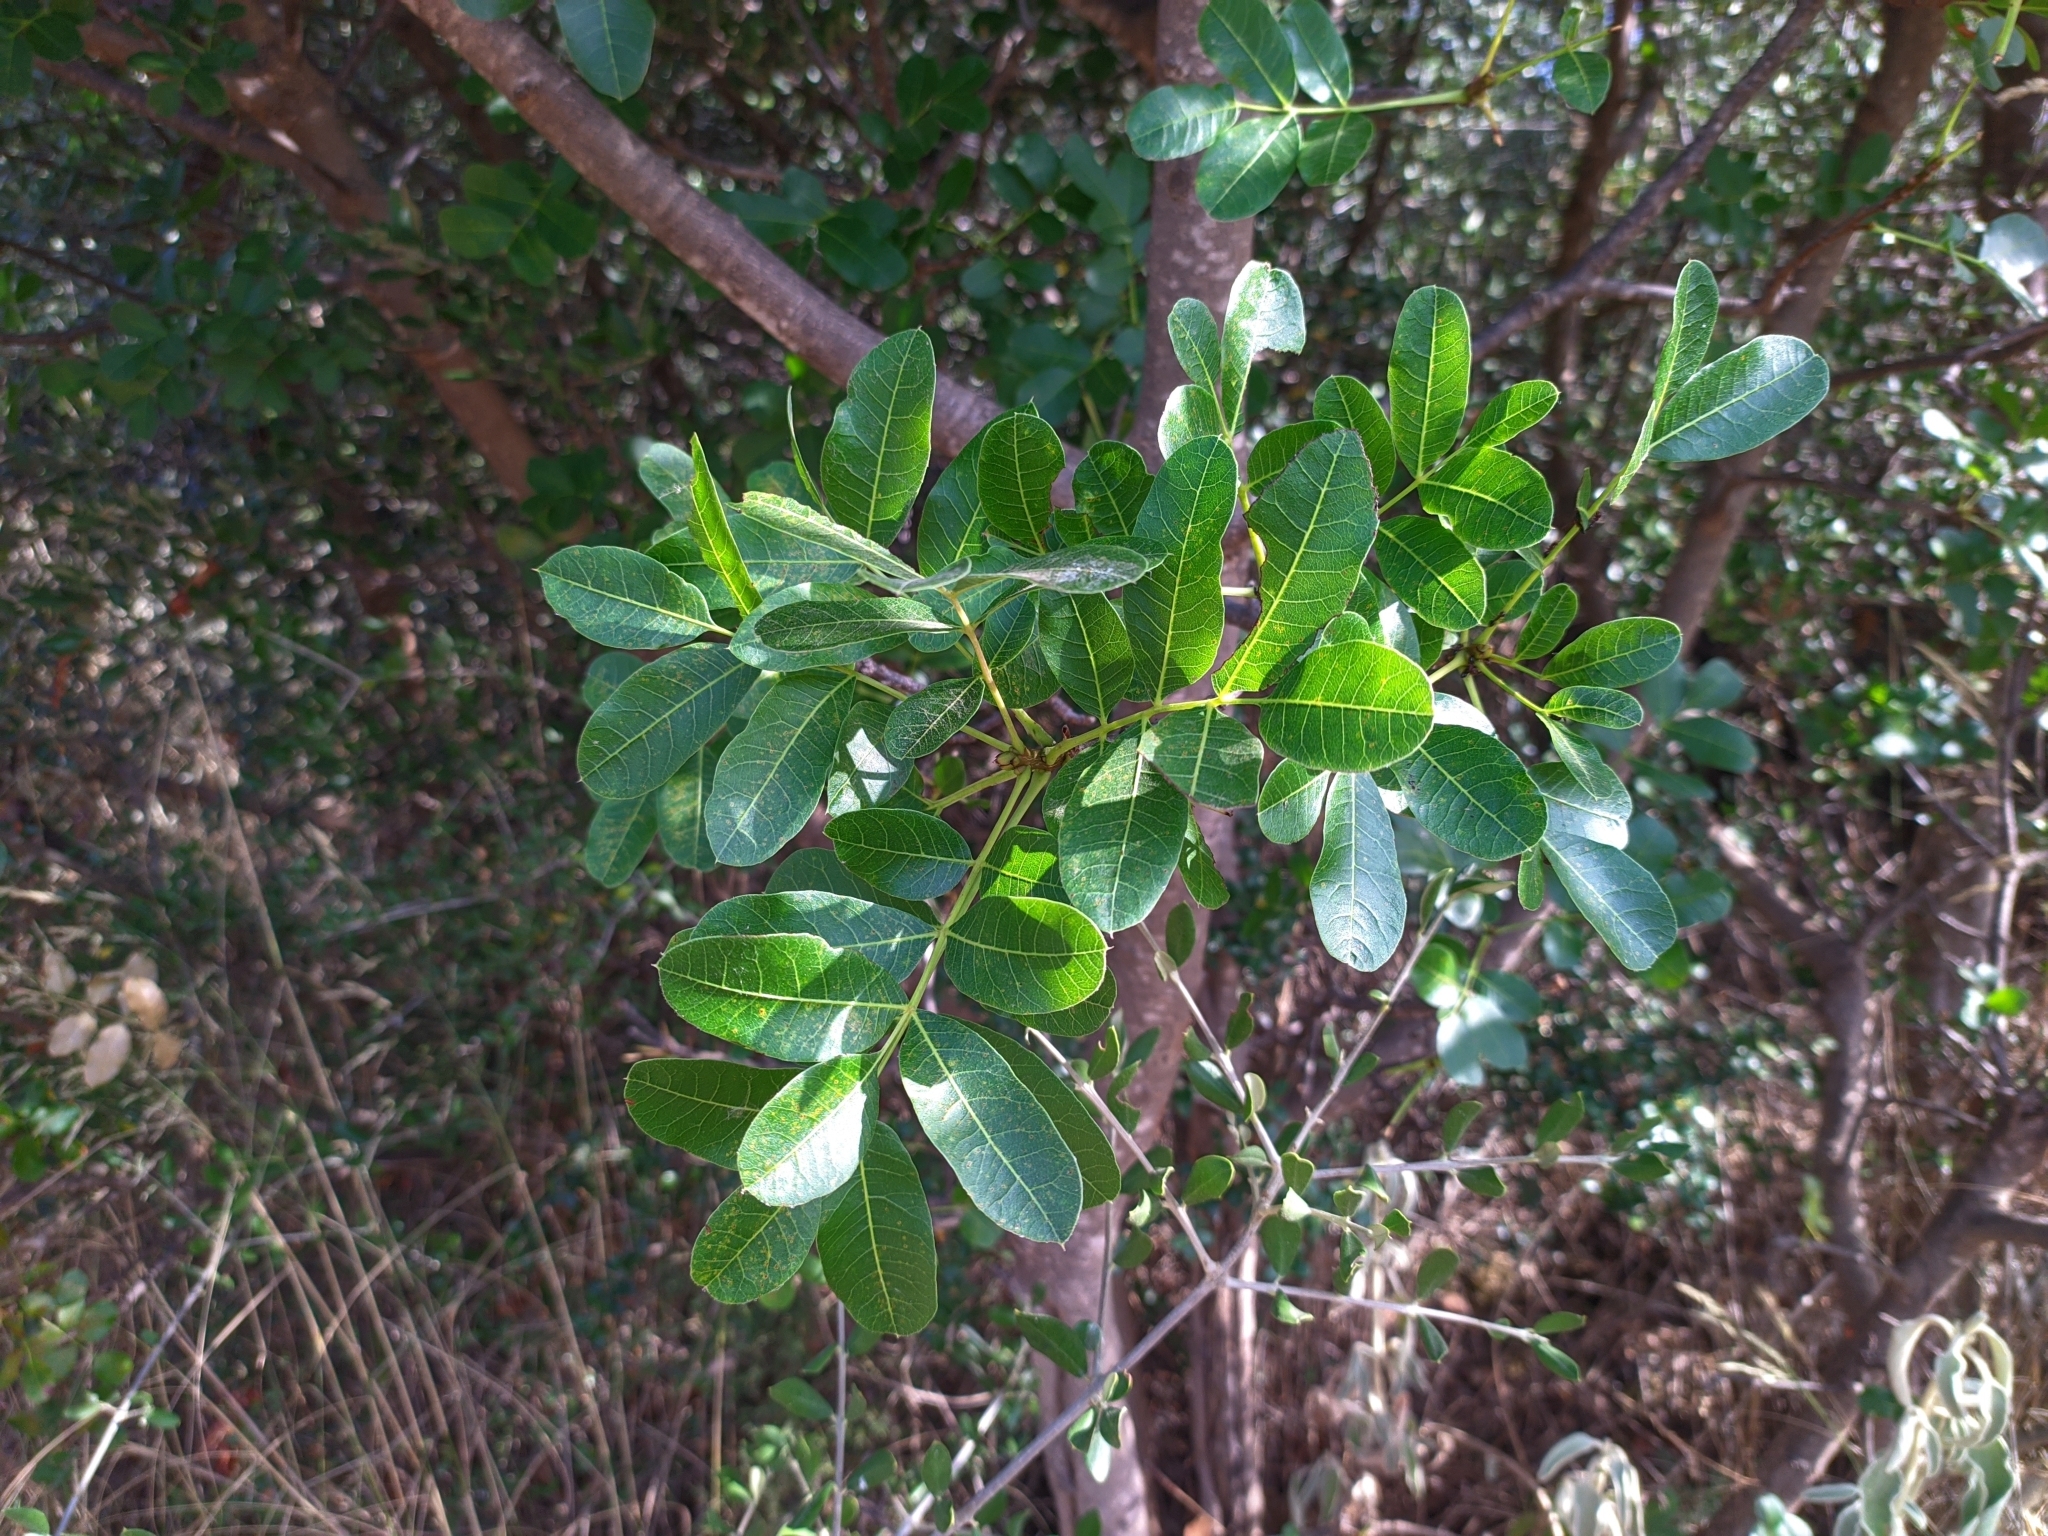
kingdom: Plantae
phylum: Tracheophyta
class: Magnoliopsida
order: Sapindales
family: Anacardiaceae
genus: Pistacia
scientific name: Pistacia terebinthus
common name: Terebinth
